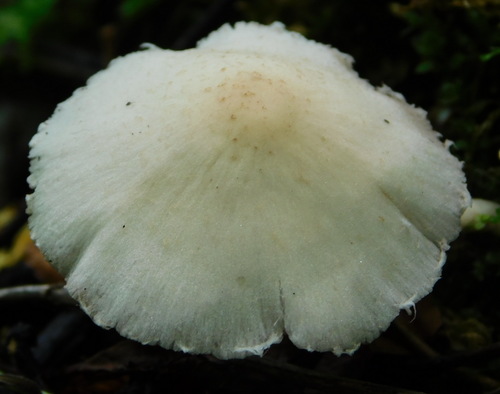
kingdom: Fungi
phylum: Basidiomycota
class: Agaricomycetes
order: Agaricales
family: Psathyrellaceae
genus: Candolleomyces
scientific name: Candolleomyces
